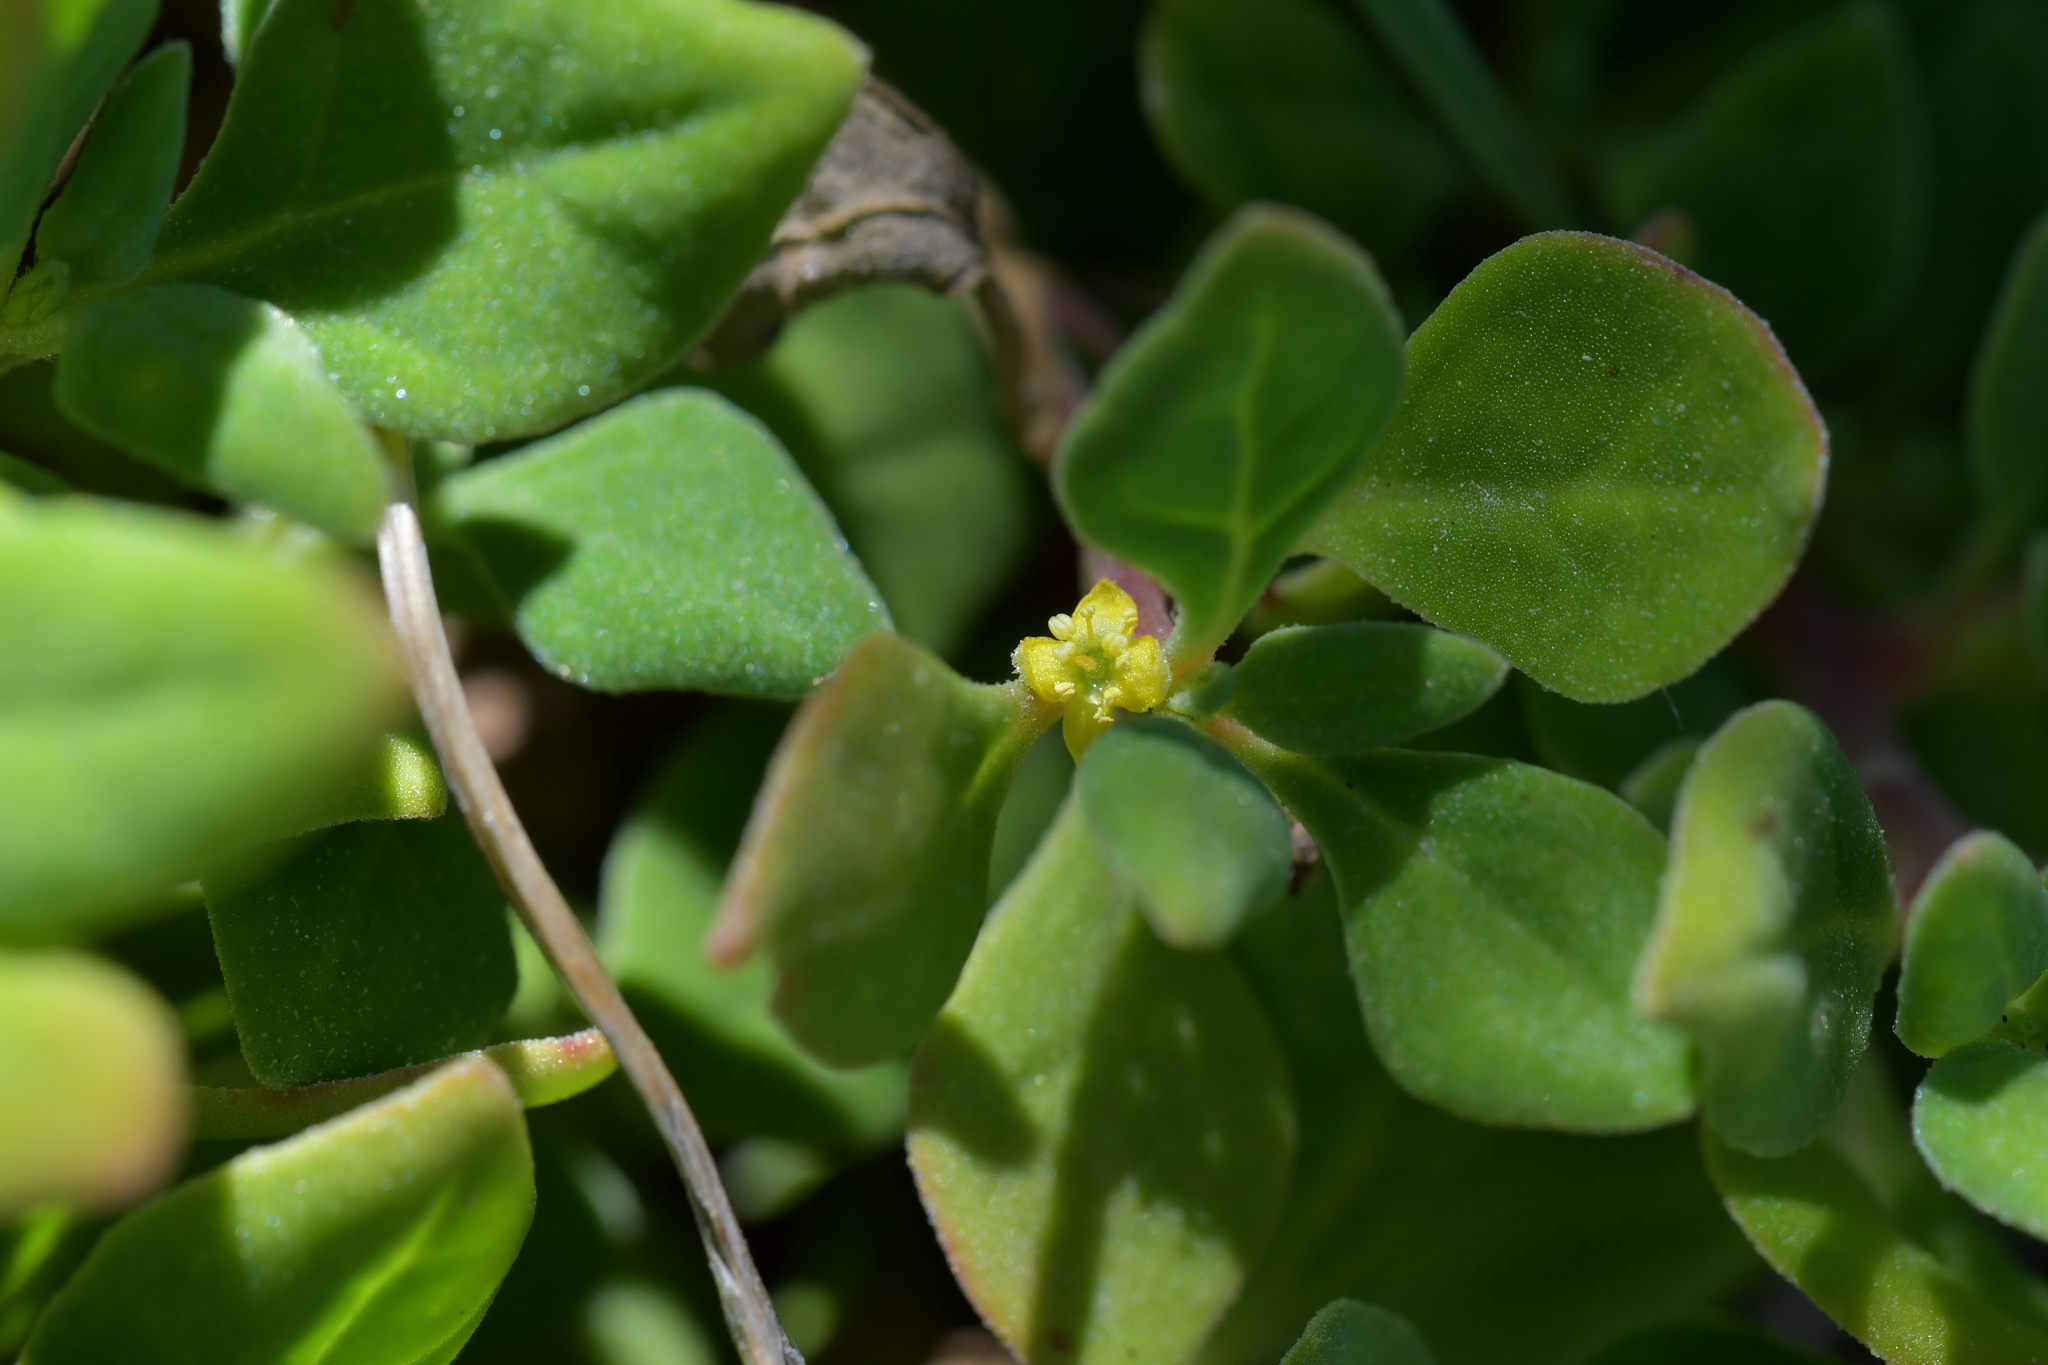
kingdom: Plantae
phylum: Tracheophyta
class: Magnoliopsida
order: Caryophyllales
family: Aizoaceae
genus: Tetragonia
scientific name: Tetragonia implexicoma
